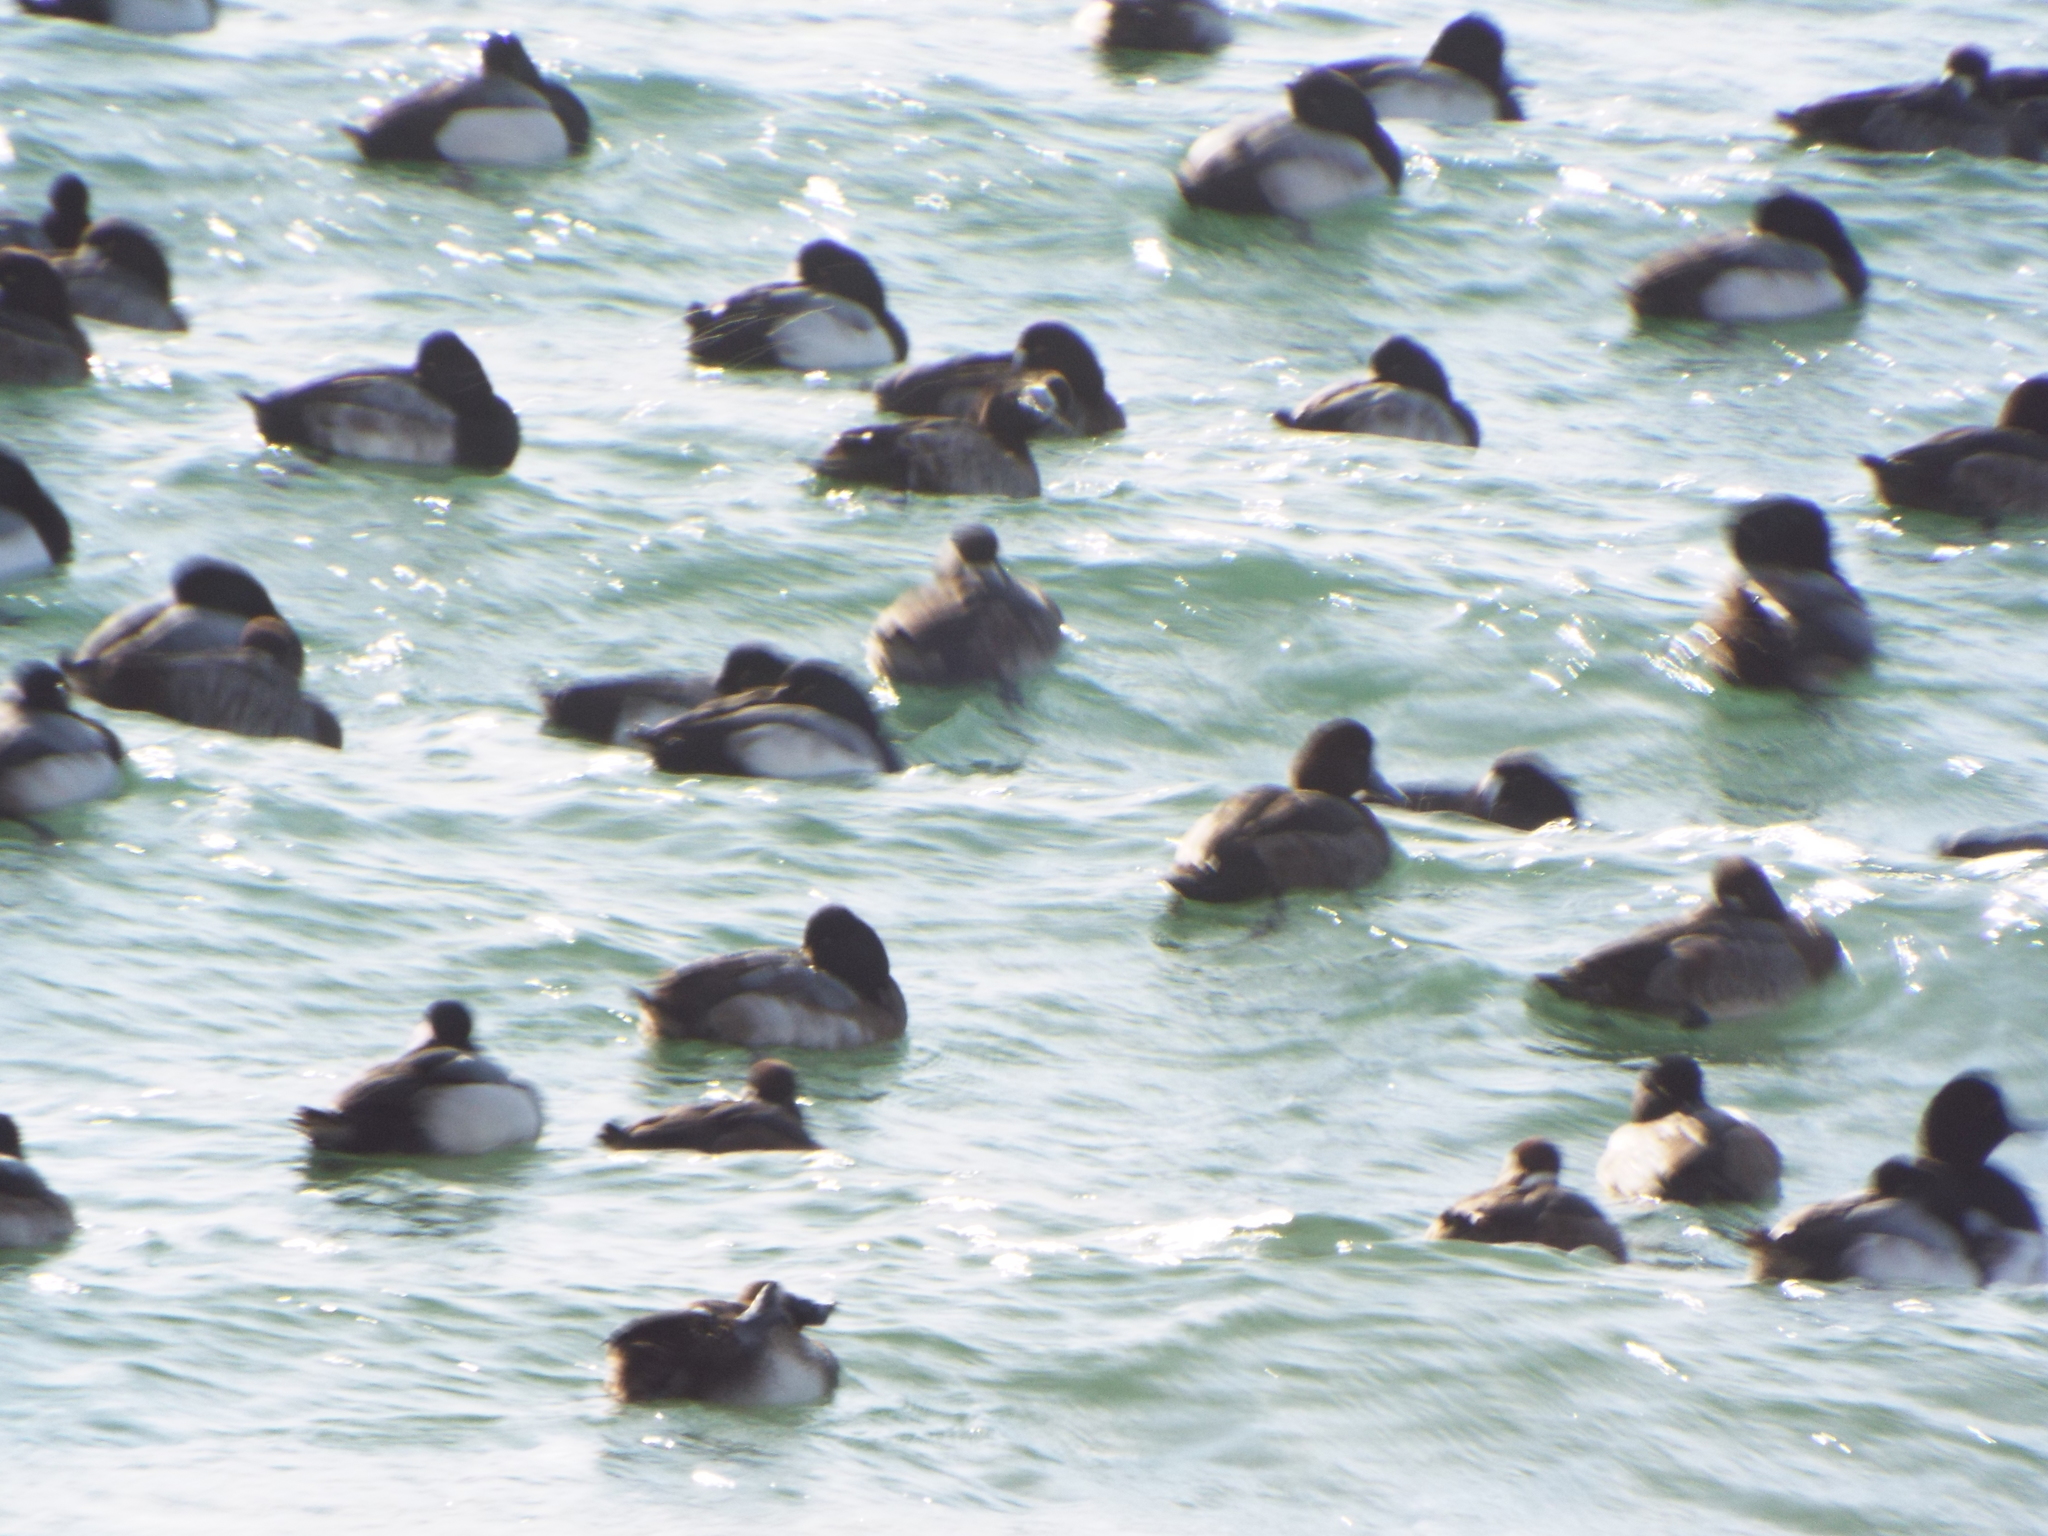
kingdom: Animalia
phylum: Chordata
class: Aves
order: Anseriformes
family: Anatidae
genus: Aythya
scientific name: Aythya marila
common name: Greater scaup
